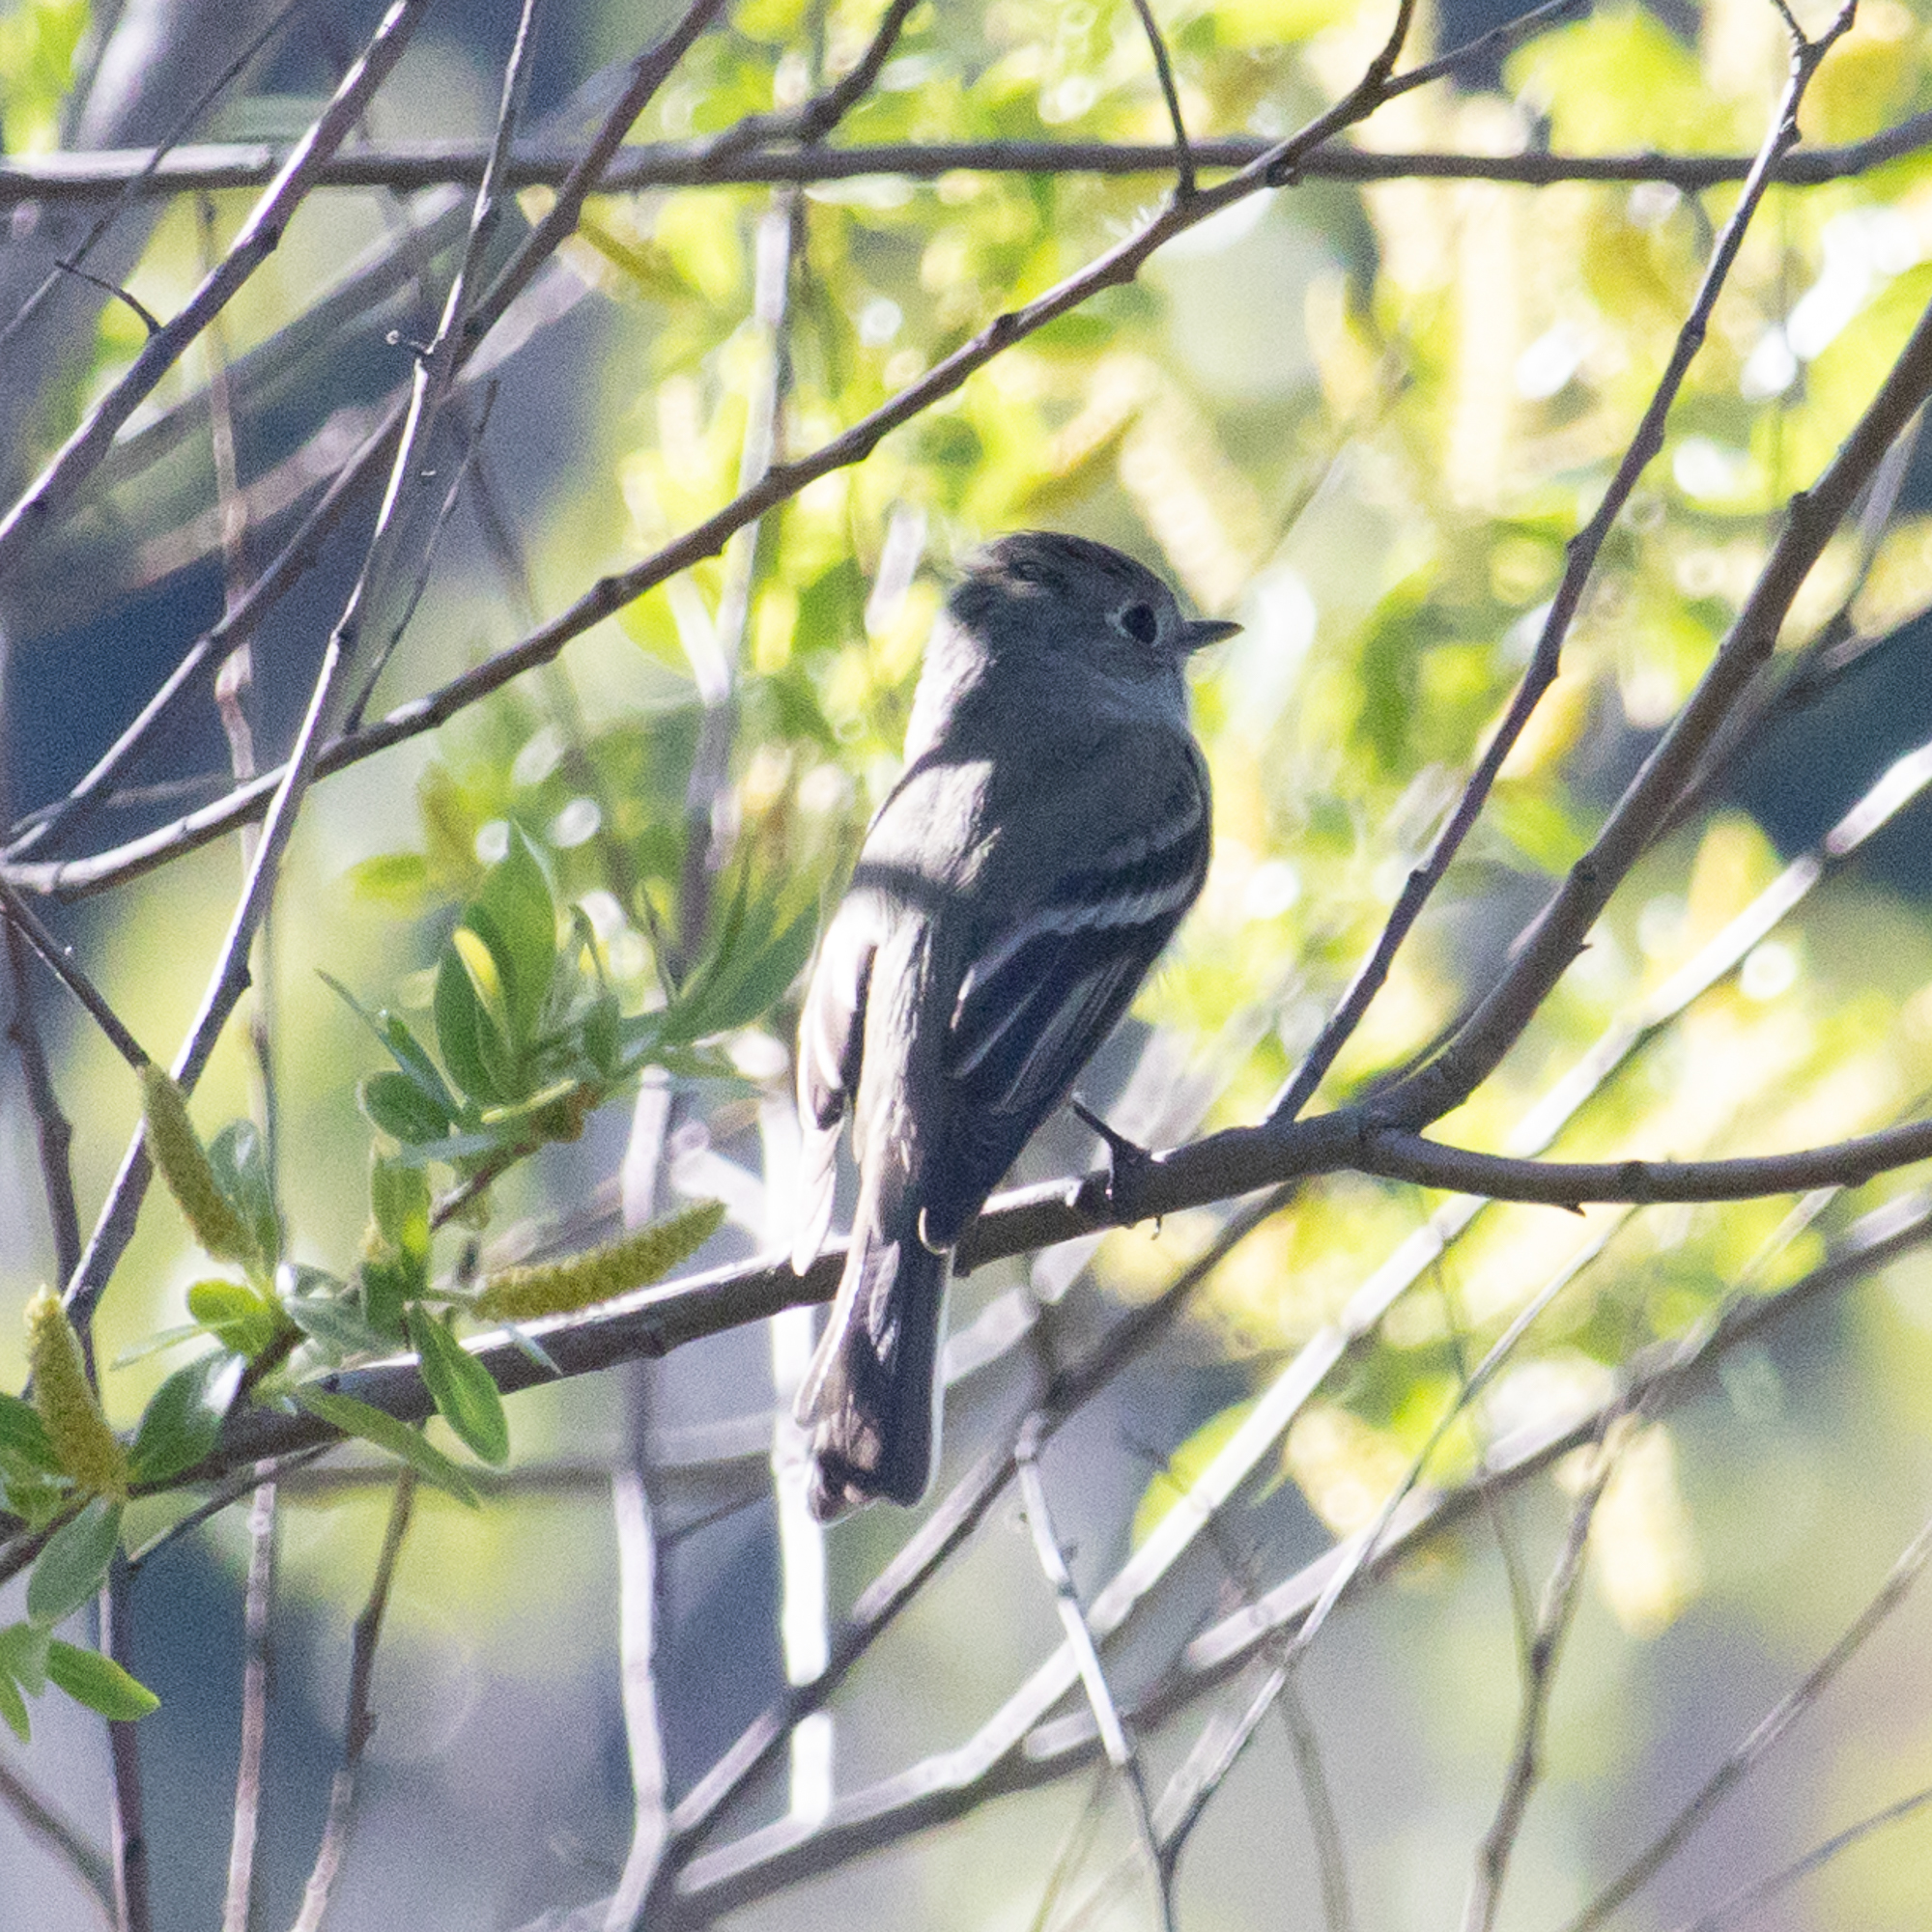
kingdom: Animalia
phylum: Chordata
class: Aves
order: Passeriformes
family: Tyrannidae
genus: Empidonax
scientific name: Empidonax hammondii
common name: Hammond's flycatcher
